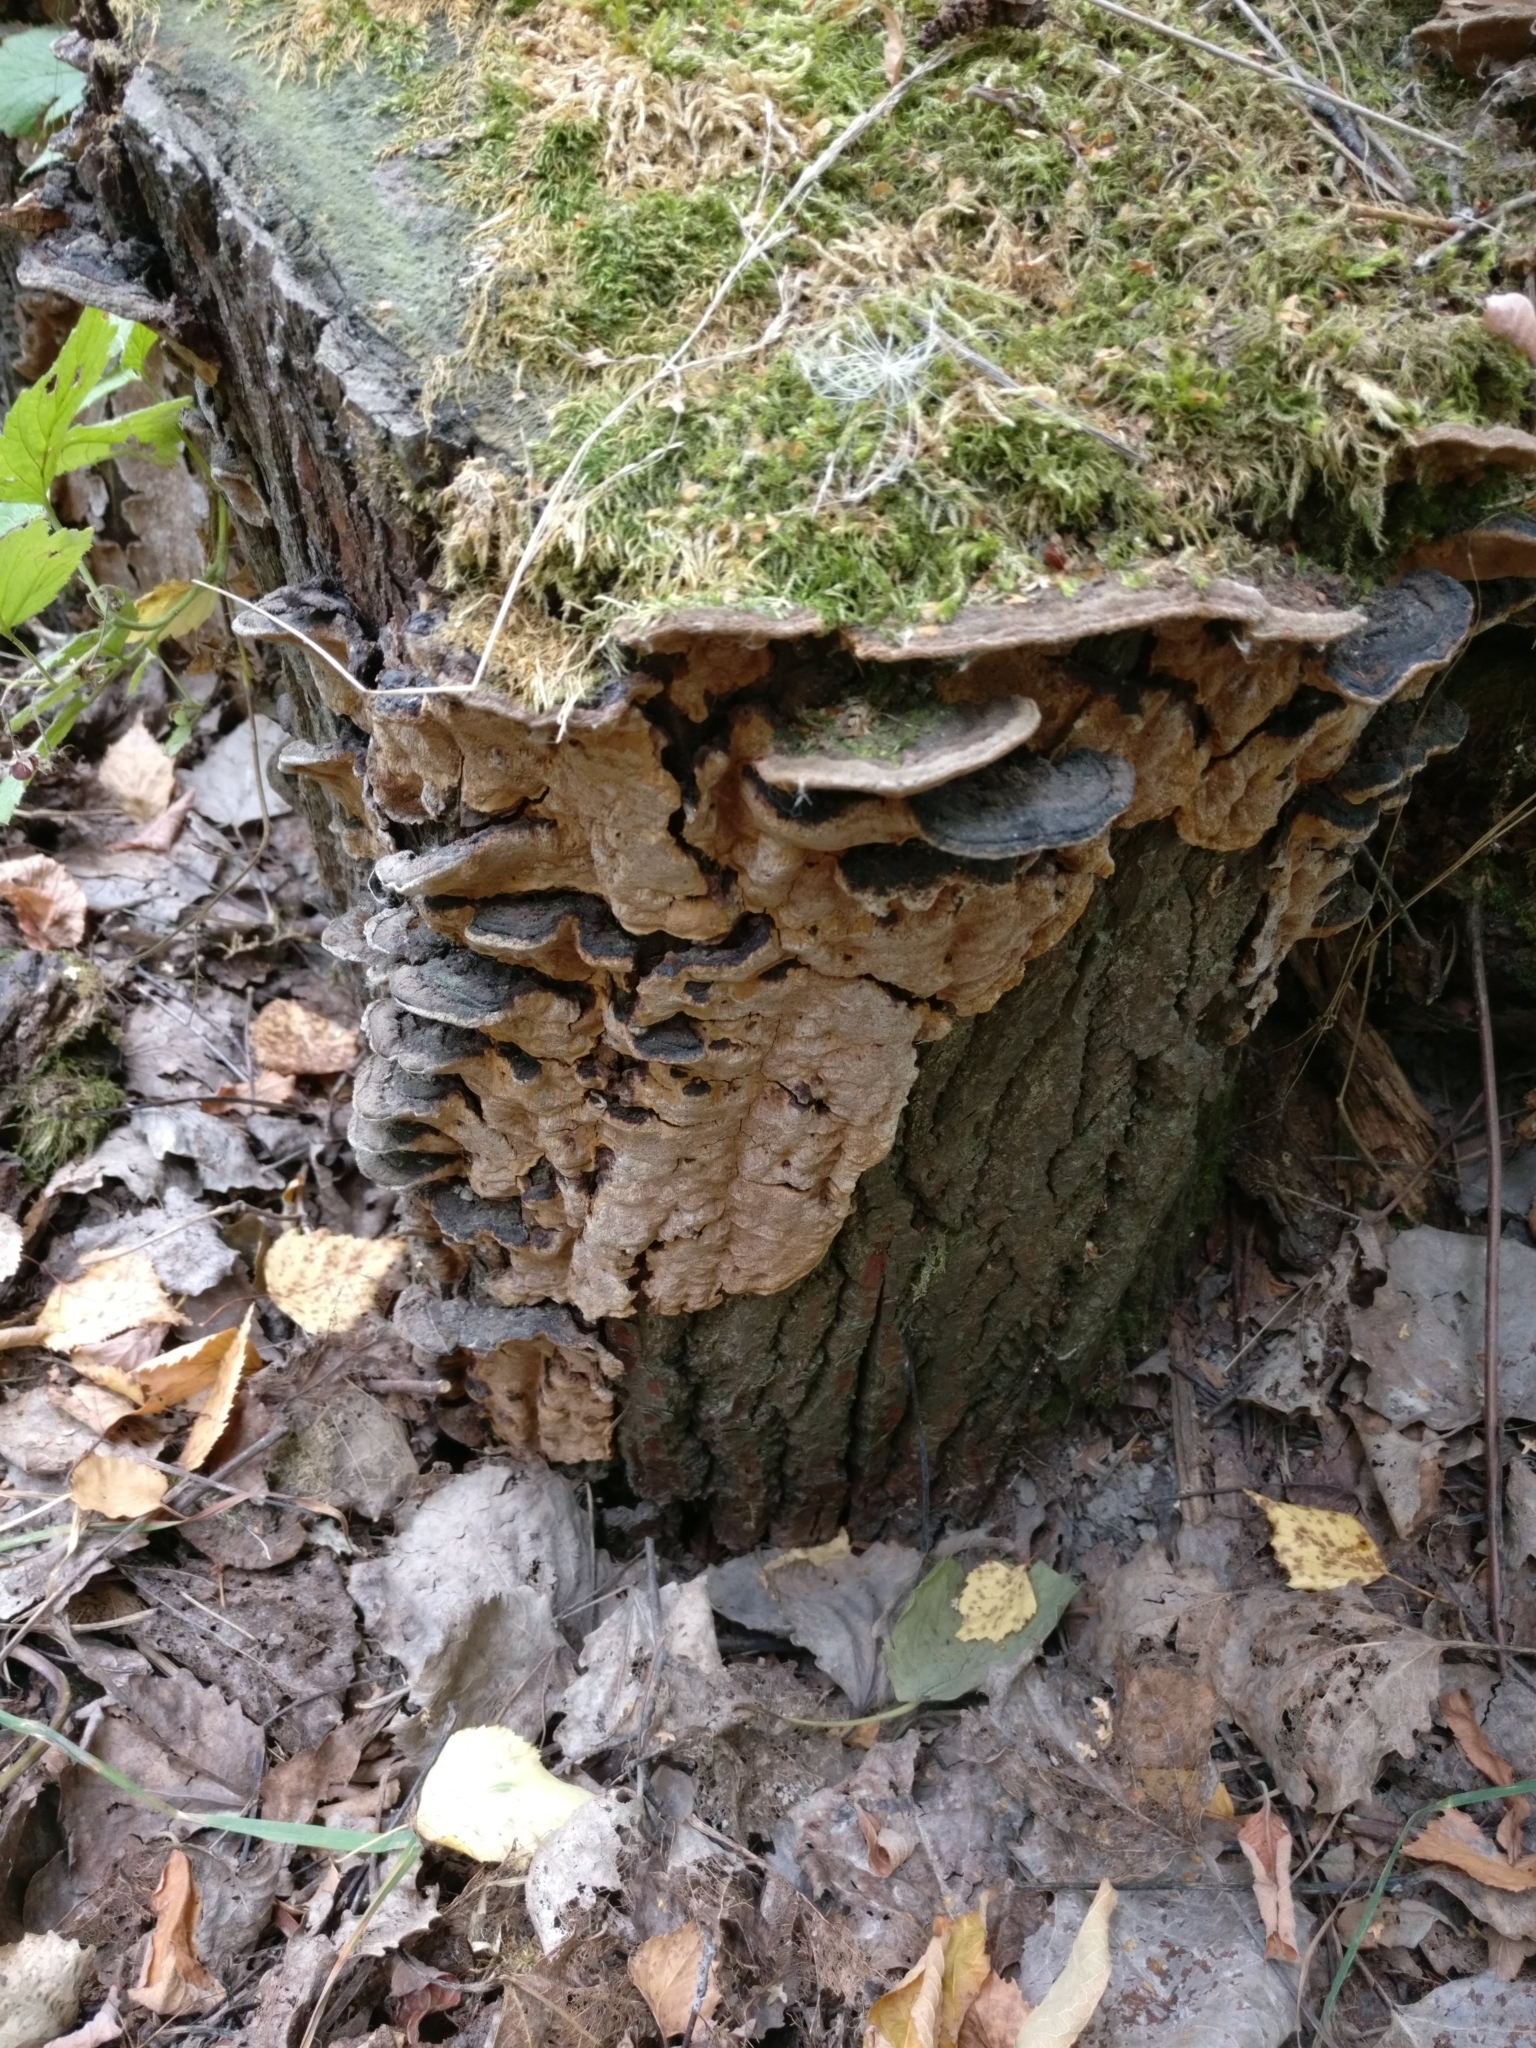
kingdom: Fungi
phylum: Basidiomycota
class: Agaricomycetes
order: Hymenochaetales
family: Hymenochaetaceae
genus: Phellinopsis
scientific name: Phellinopsis conchata
